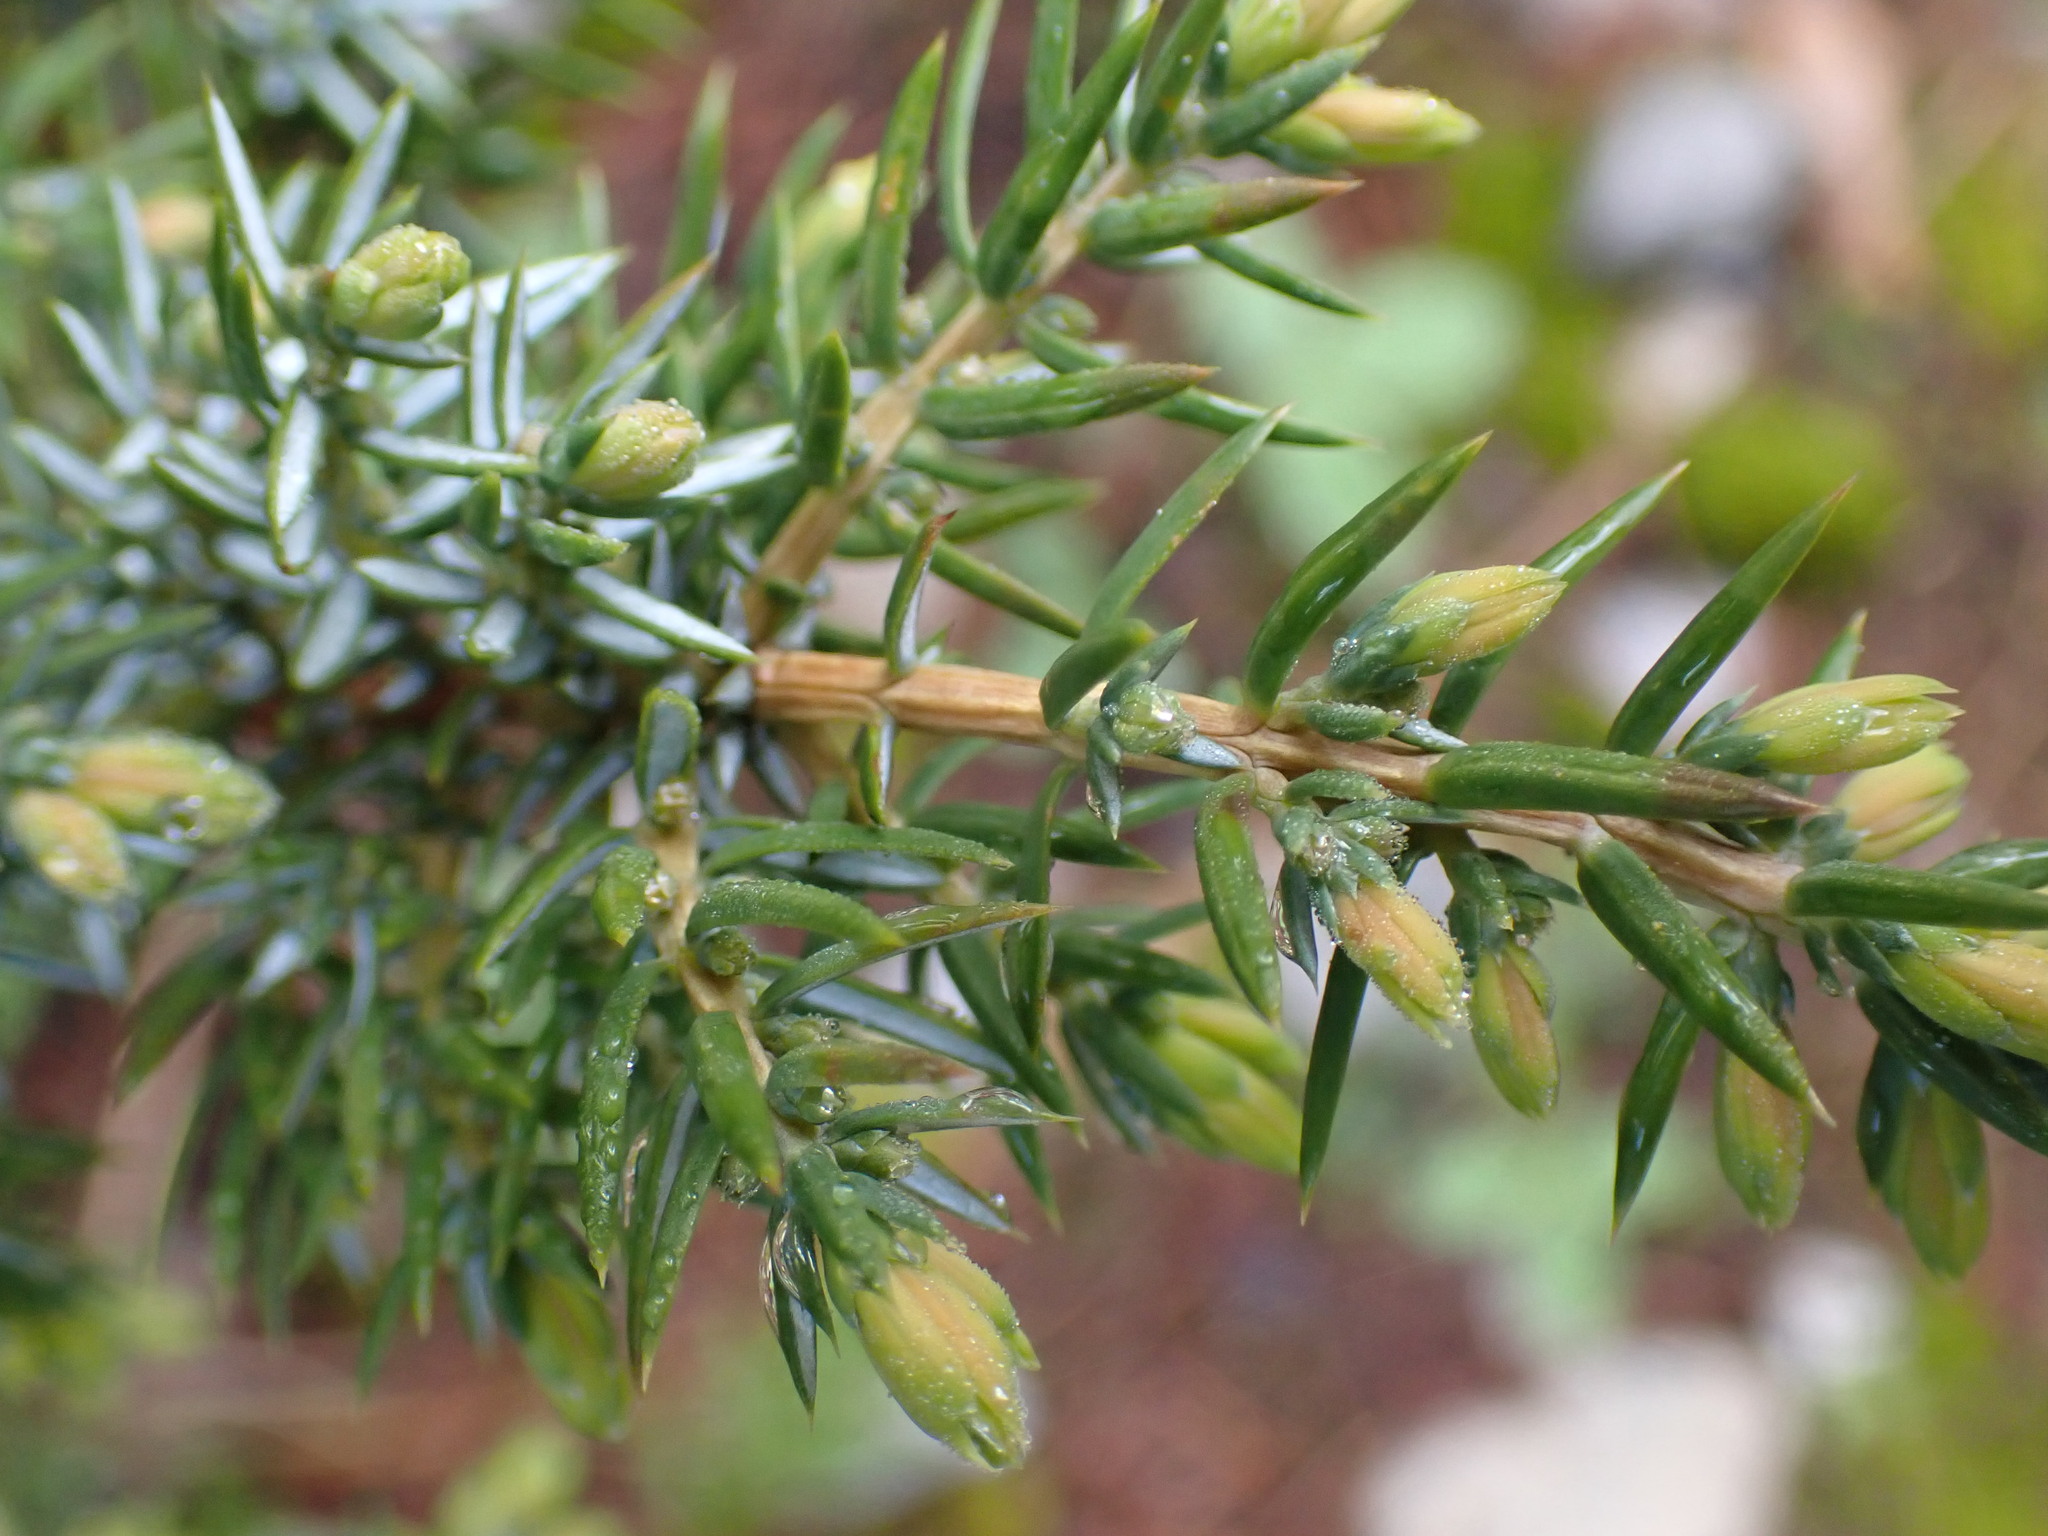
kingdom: Plantae
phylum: Tracheophyta
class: Pinopsida
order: Pinales
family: Cupressaceae
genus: Juniperus
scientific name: Juniperus communis
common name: Common juniper
